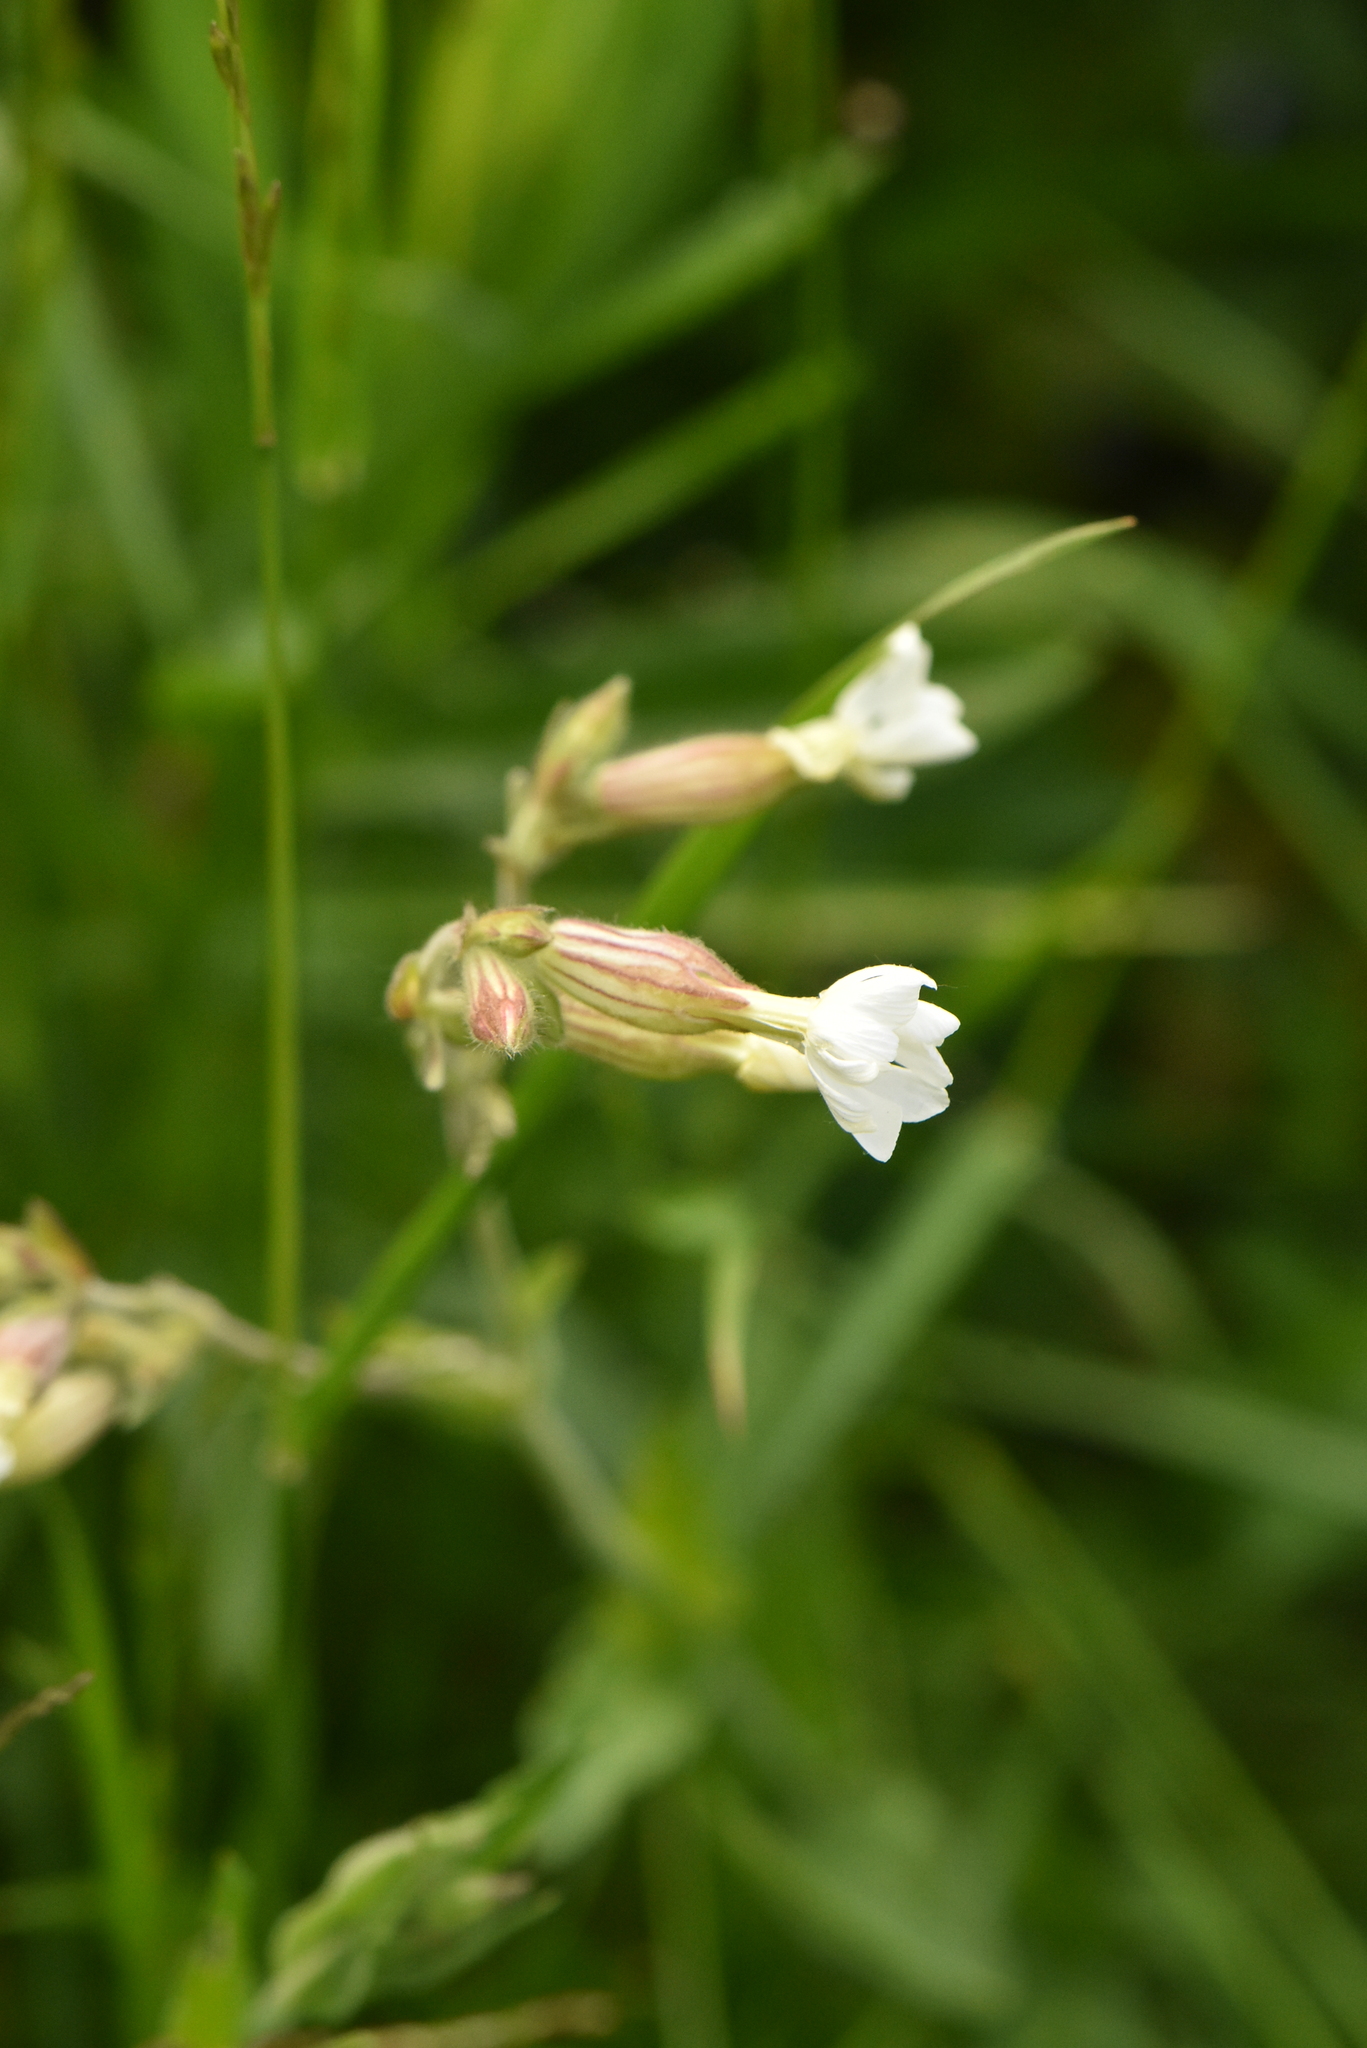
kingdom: Plantae
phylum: Tracheophyta
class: Magnoliopsida
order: Caryophyllales
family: Caryophyllaceae
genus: Silene
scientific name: Silene latifolia
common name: White campion
